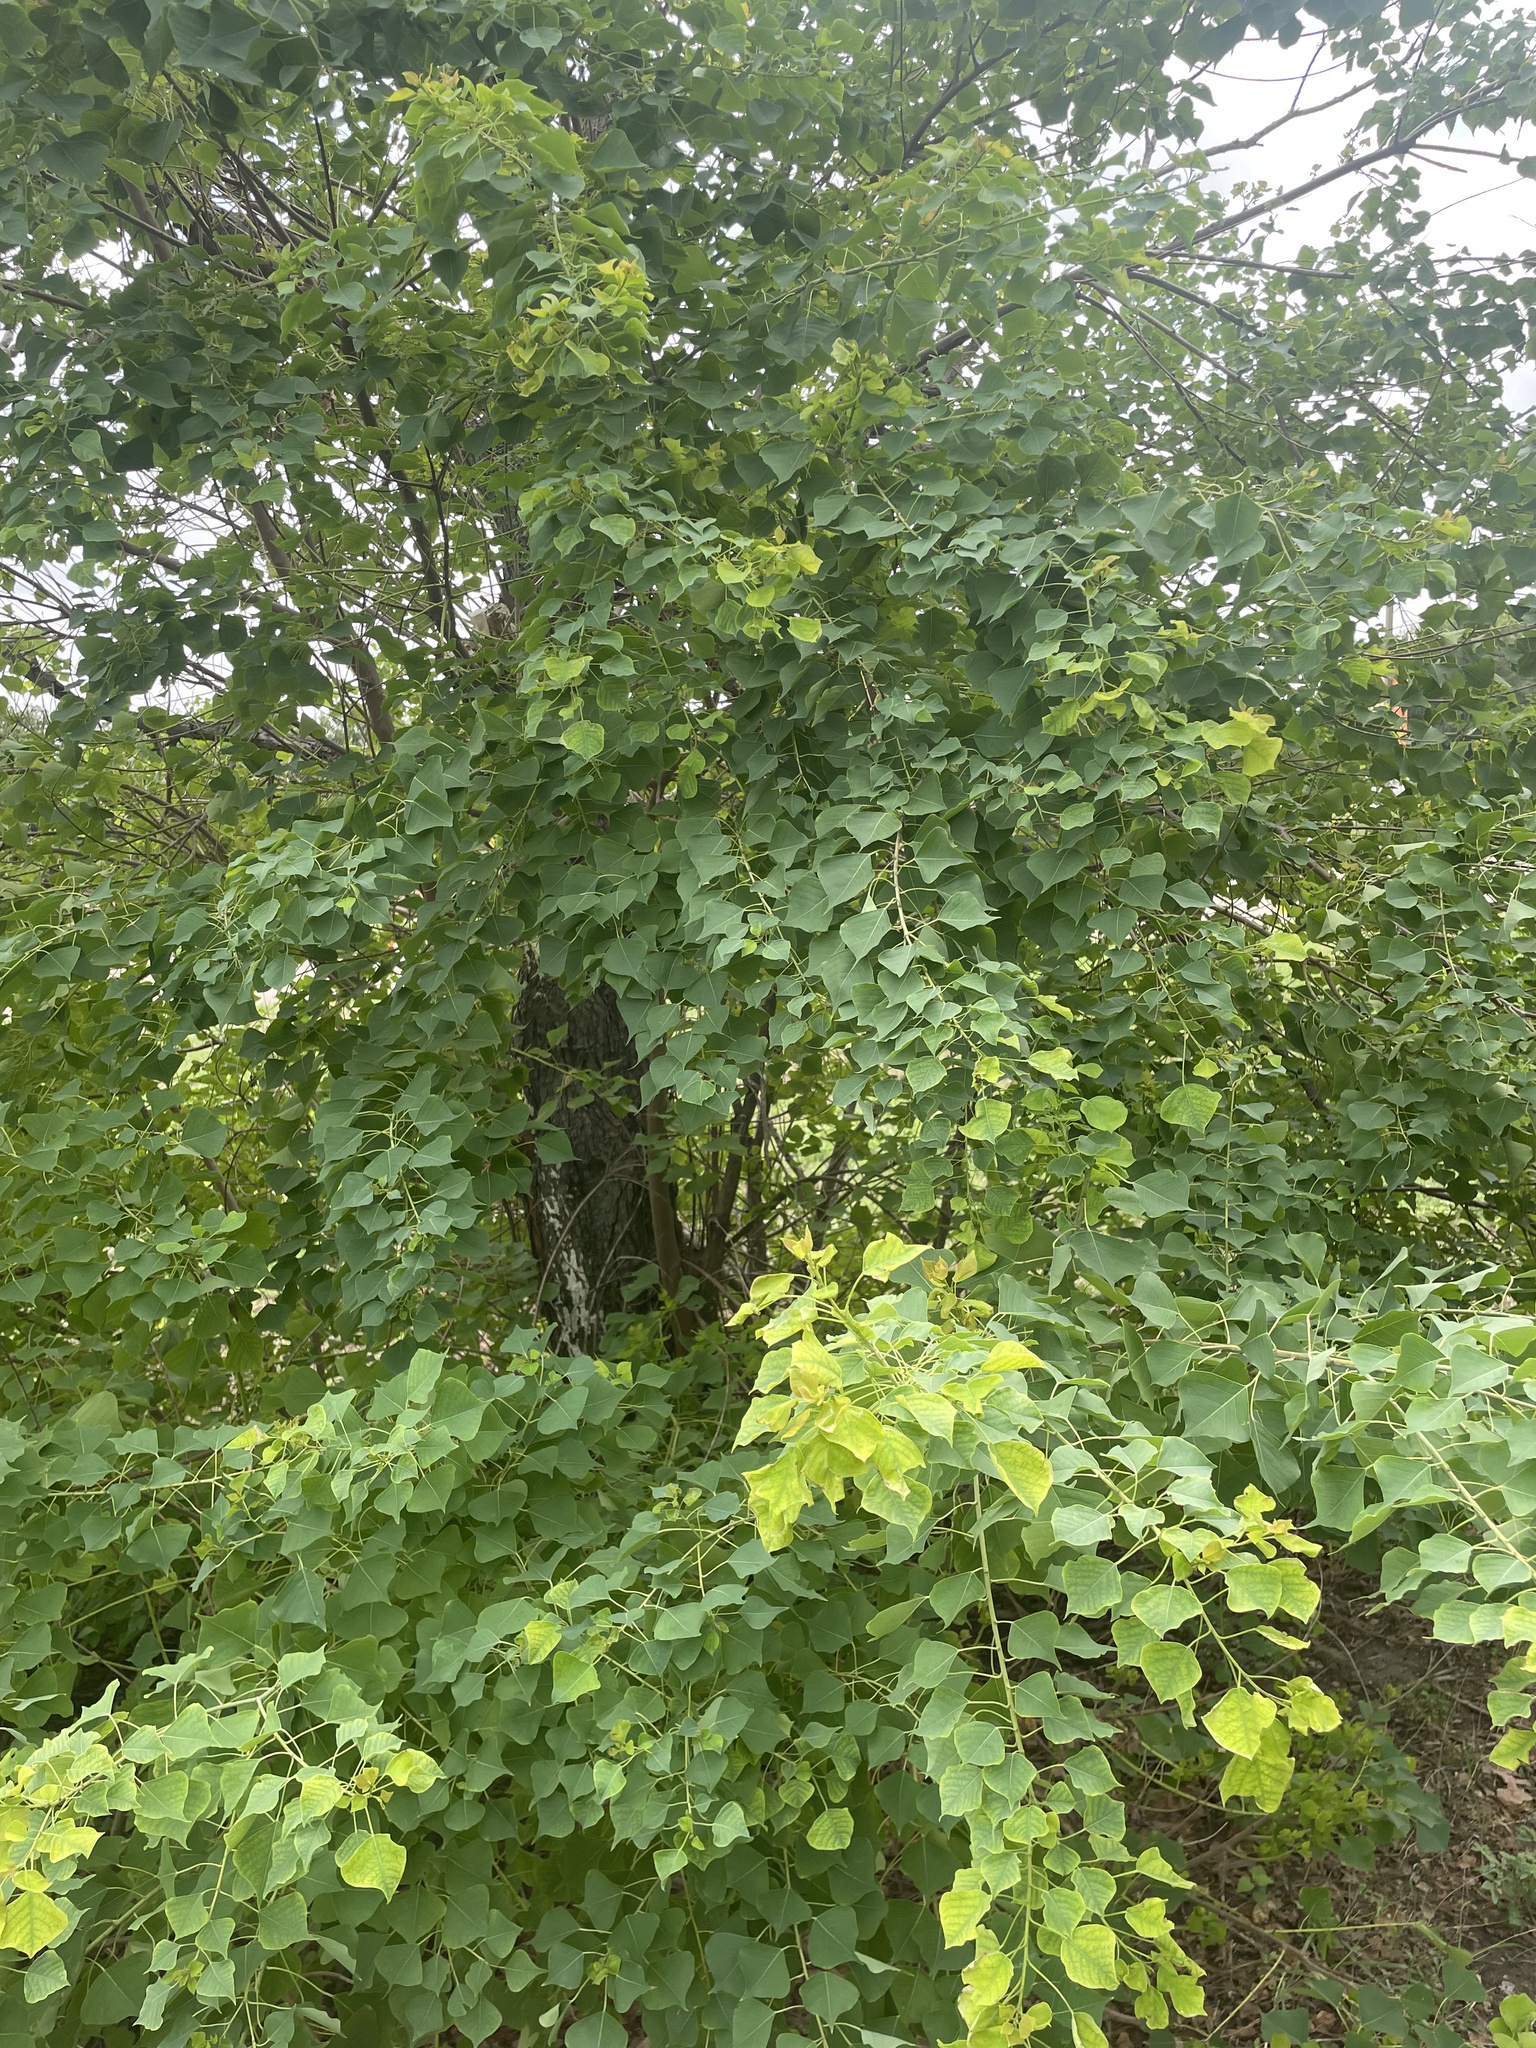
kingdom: Plantae
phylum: Tracheophyta
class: Magnoliopsida
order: Malpighiales
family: Euphorbiaceae
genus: Triadica
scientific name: Triadica sebifera
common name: Chinese tallow
